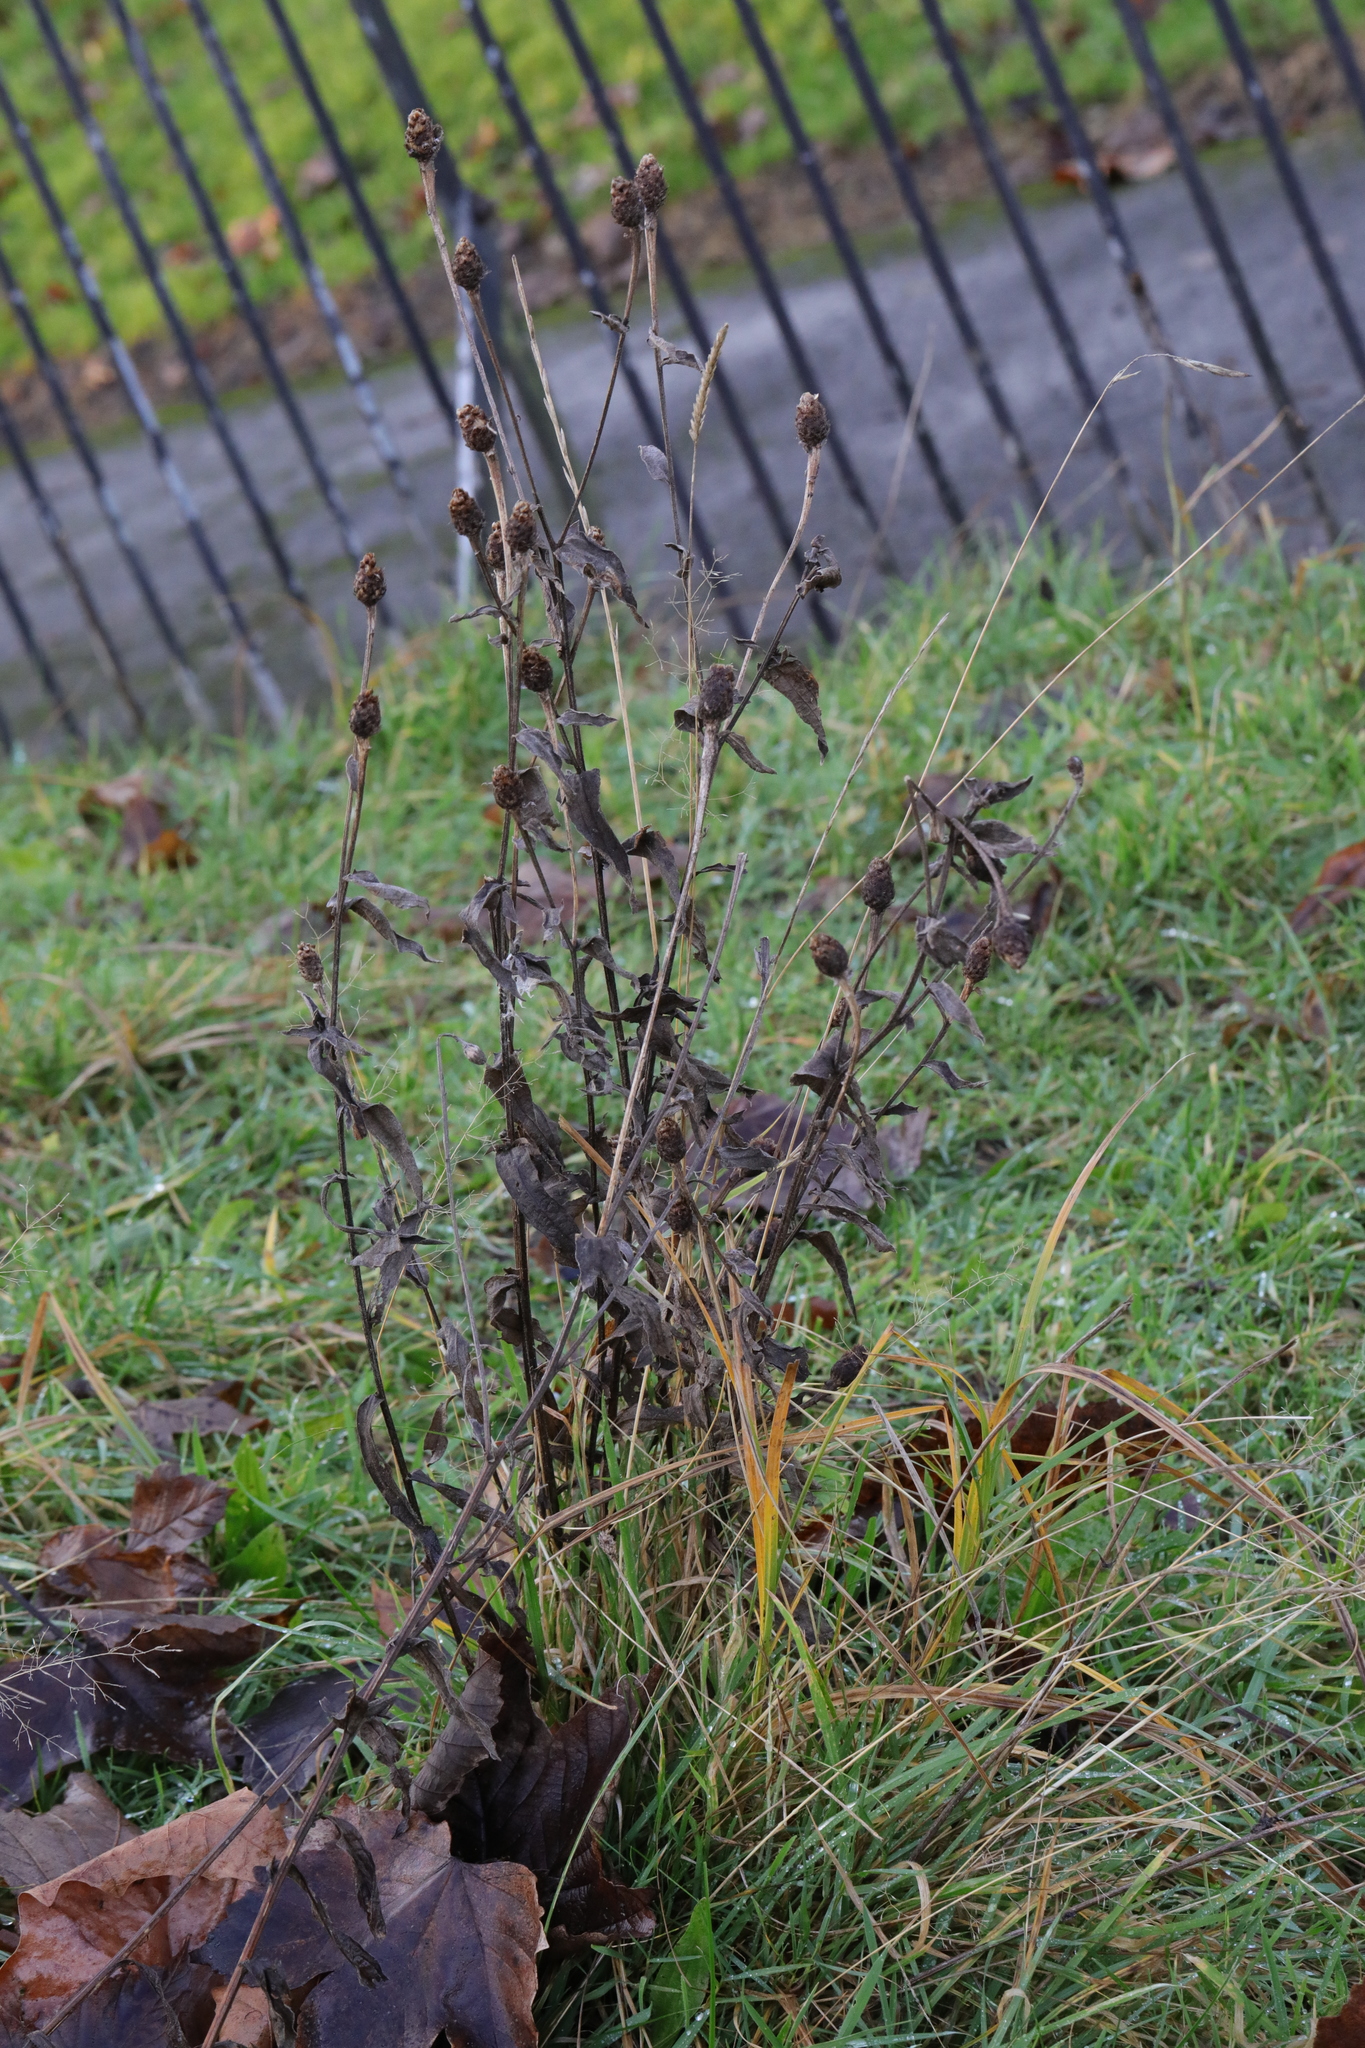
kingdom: Plantae
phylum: Tracheophyta
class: Magnoliopsida
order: Asterales
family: Asteraceae
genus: Centaurea
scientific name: Centaurea nigra
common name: Lesser knapweed
